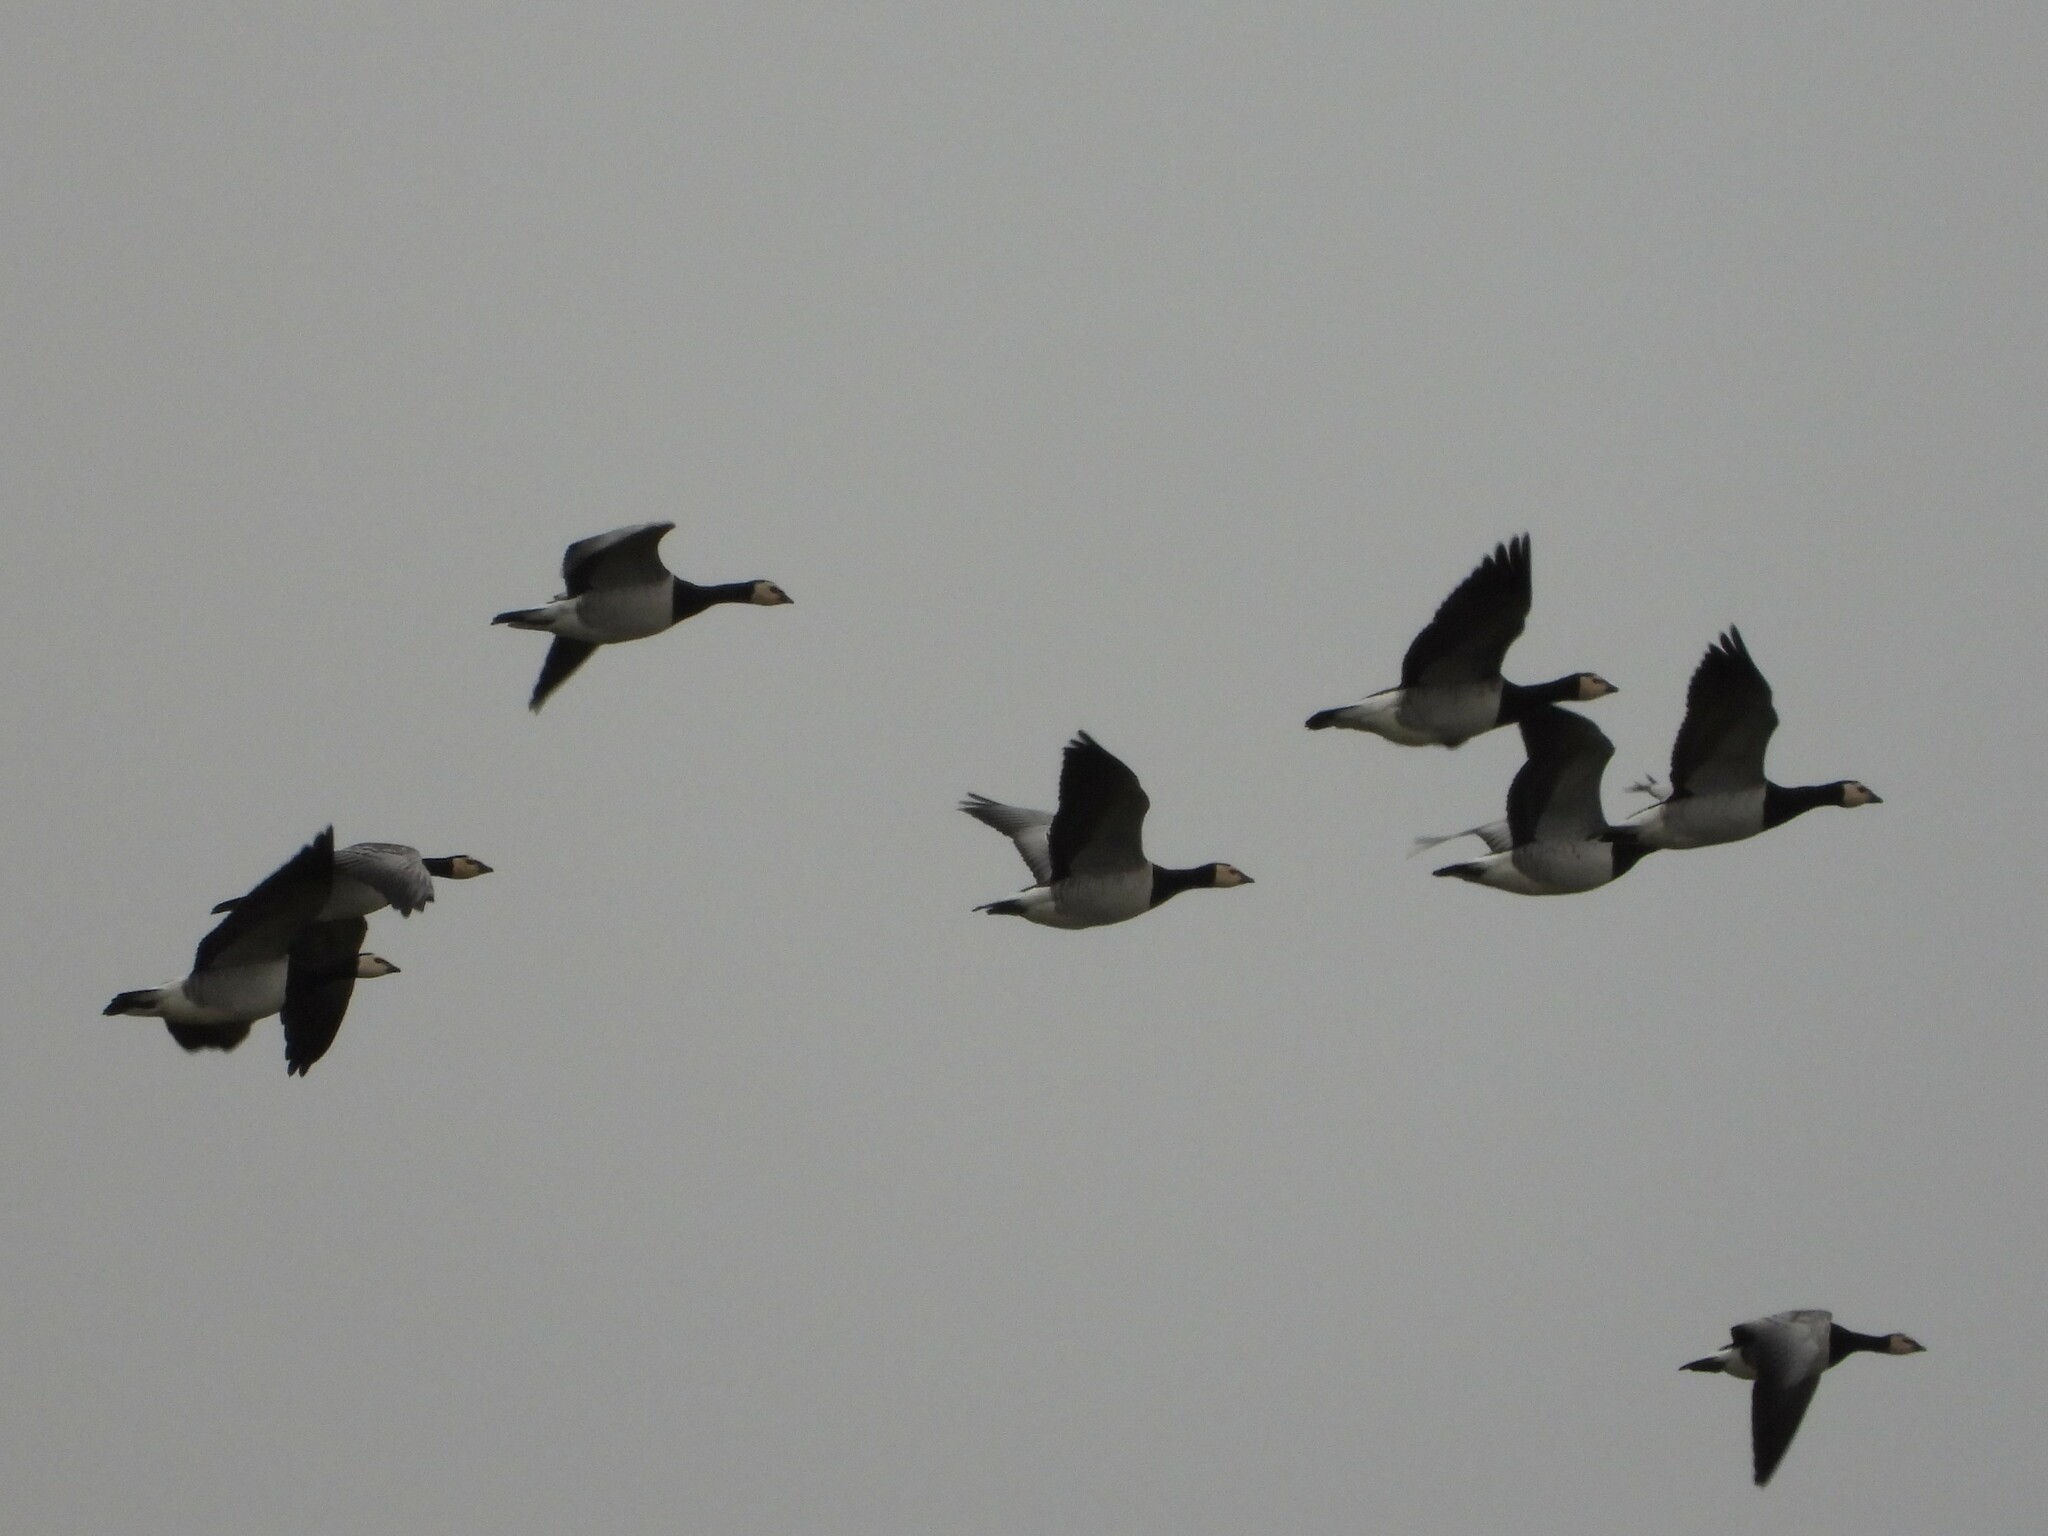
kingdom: Animalia
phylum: Chordata
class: Aves
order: Anseriformes
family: Anatidae
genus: Branta
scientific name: Branta leucopsis
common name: Barnacle goose
